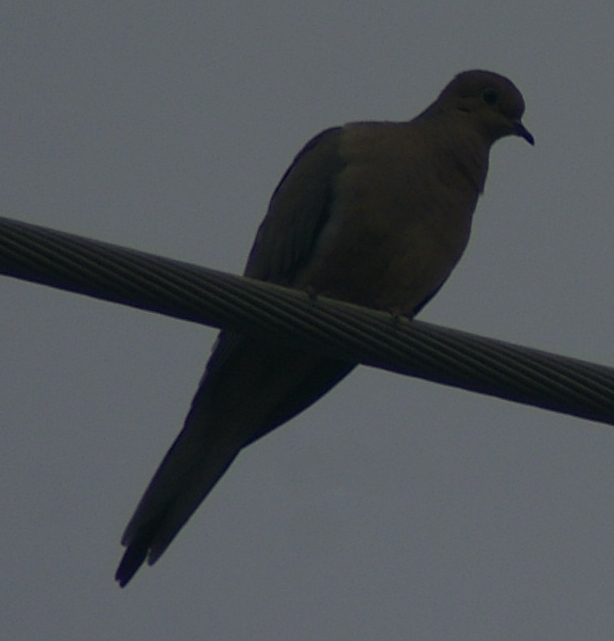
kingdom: Animalia
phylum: Chordata
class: Aves
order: Columbiformes
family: Columbidae
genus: Zenaida
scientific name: Zenaida macroura
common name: Mourning dove
